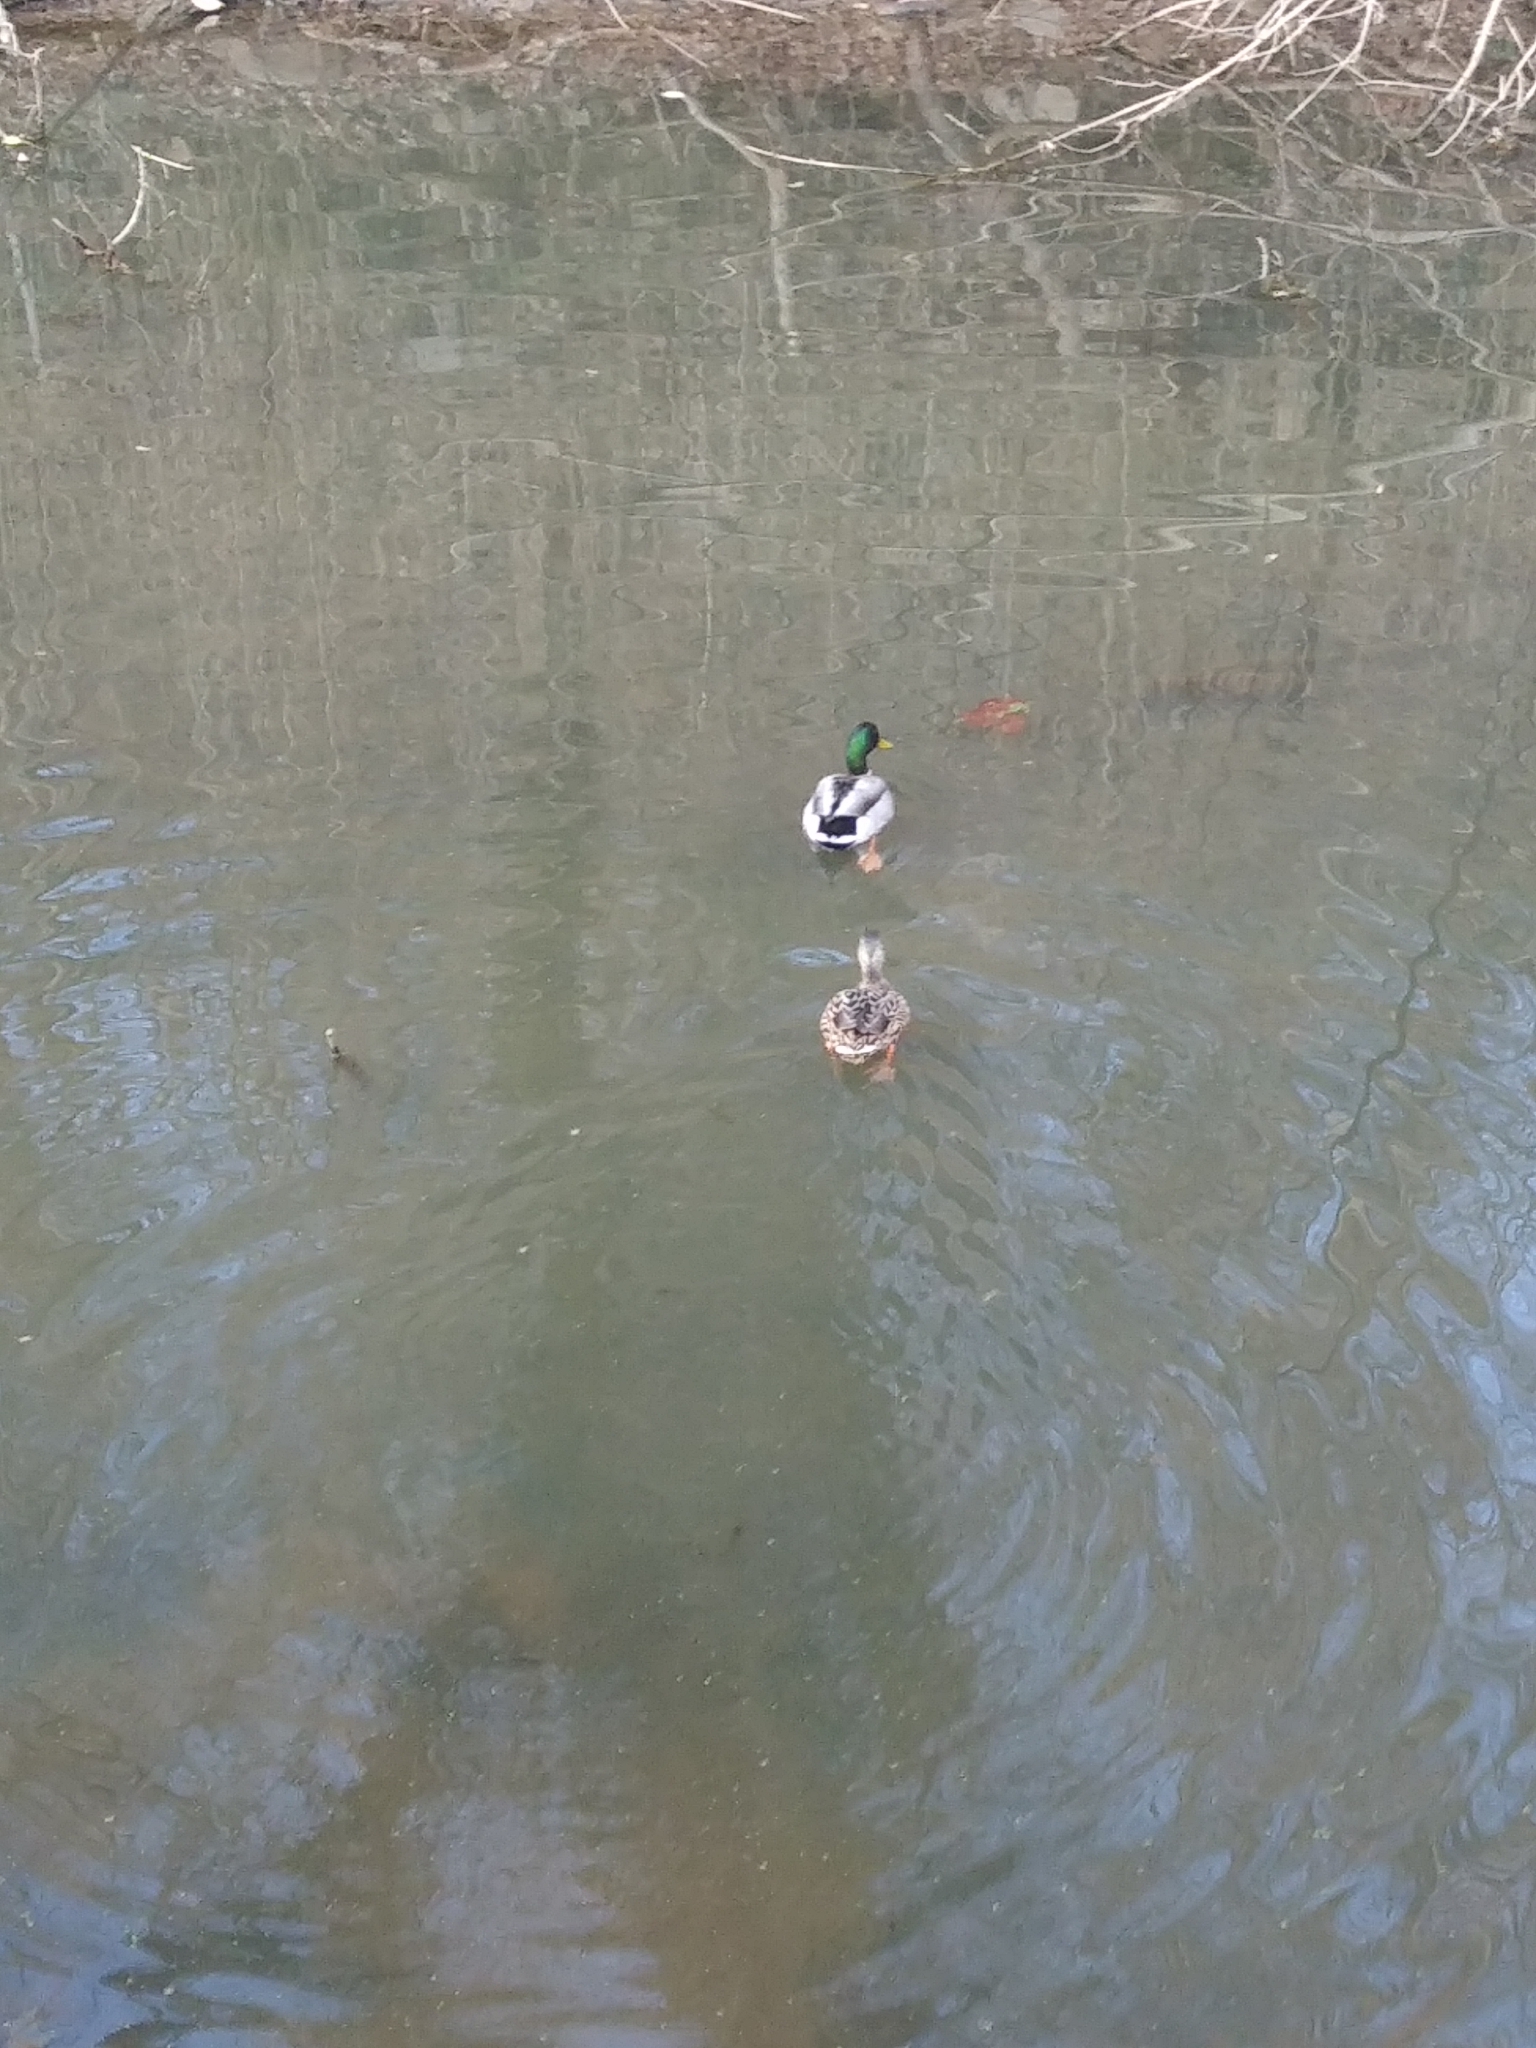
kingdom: Animalia
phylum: Chordata
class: Aves
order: Anseriformes
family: Anatidae
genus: Anas
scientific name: Anas platyrhynchos
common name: Mallard
